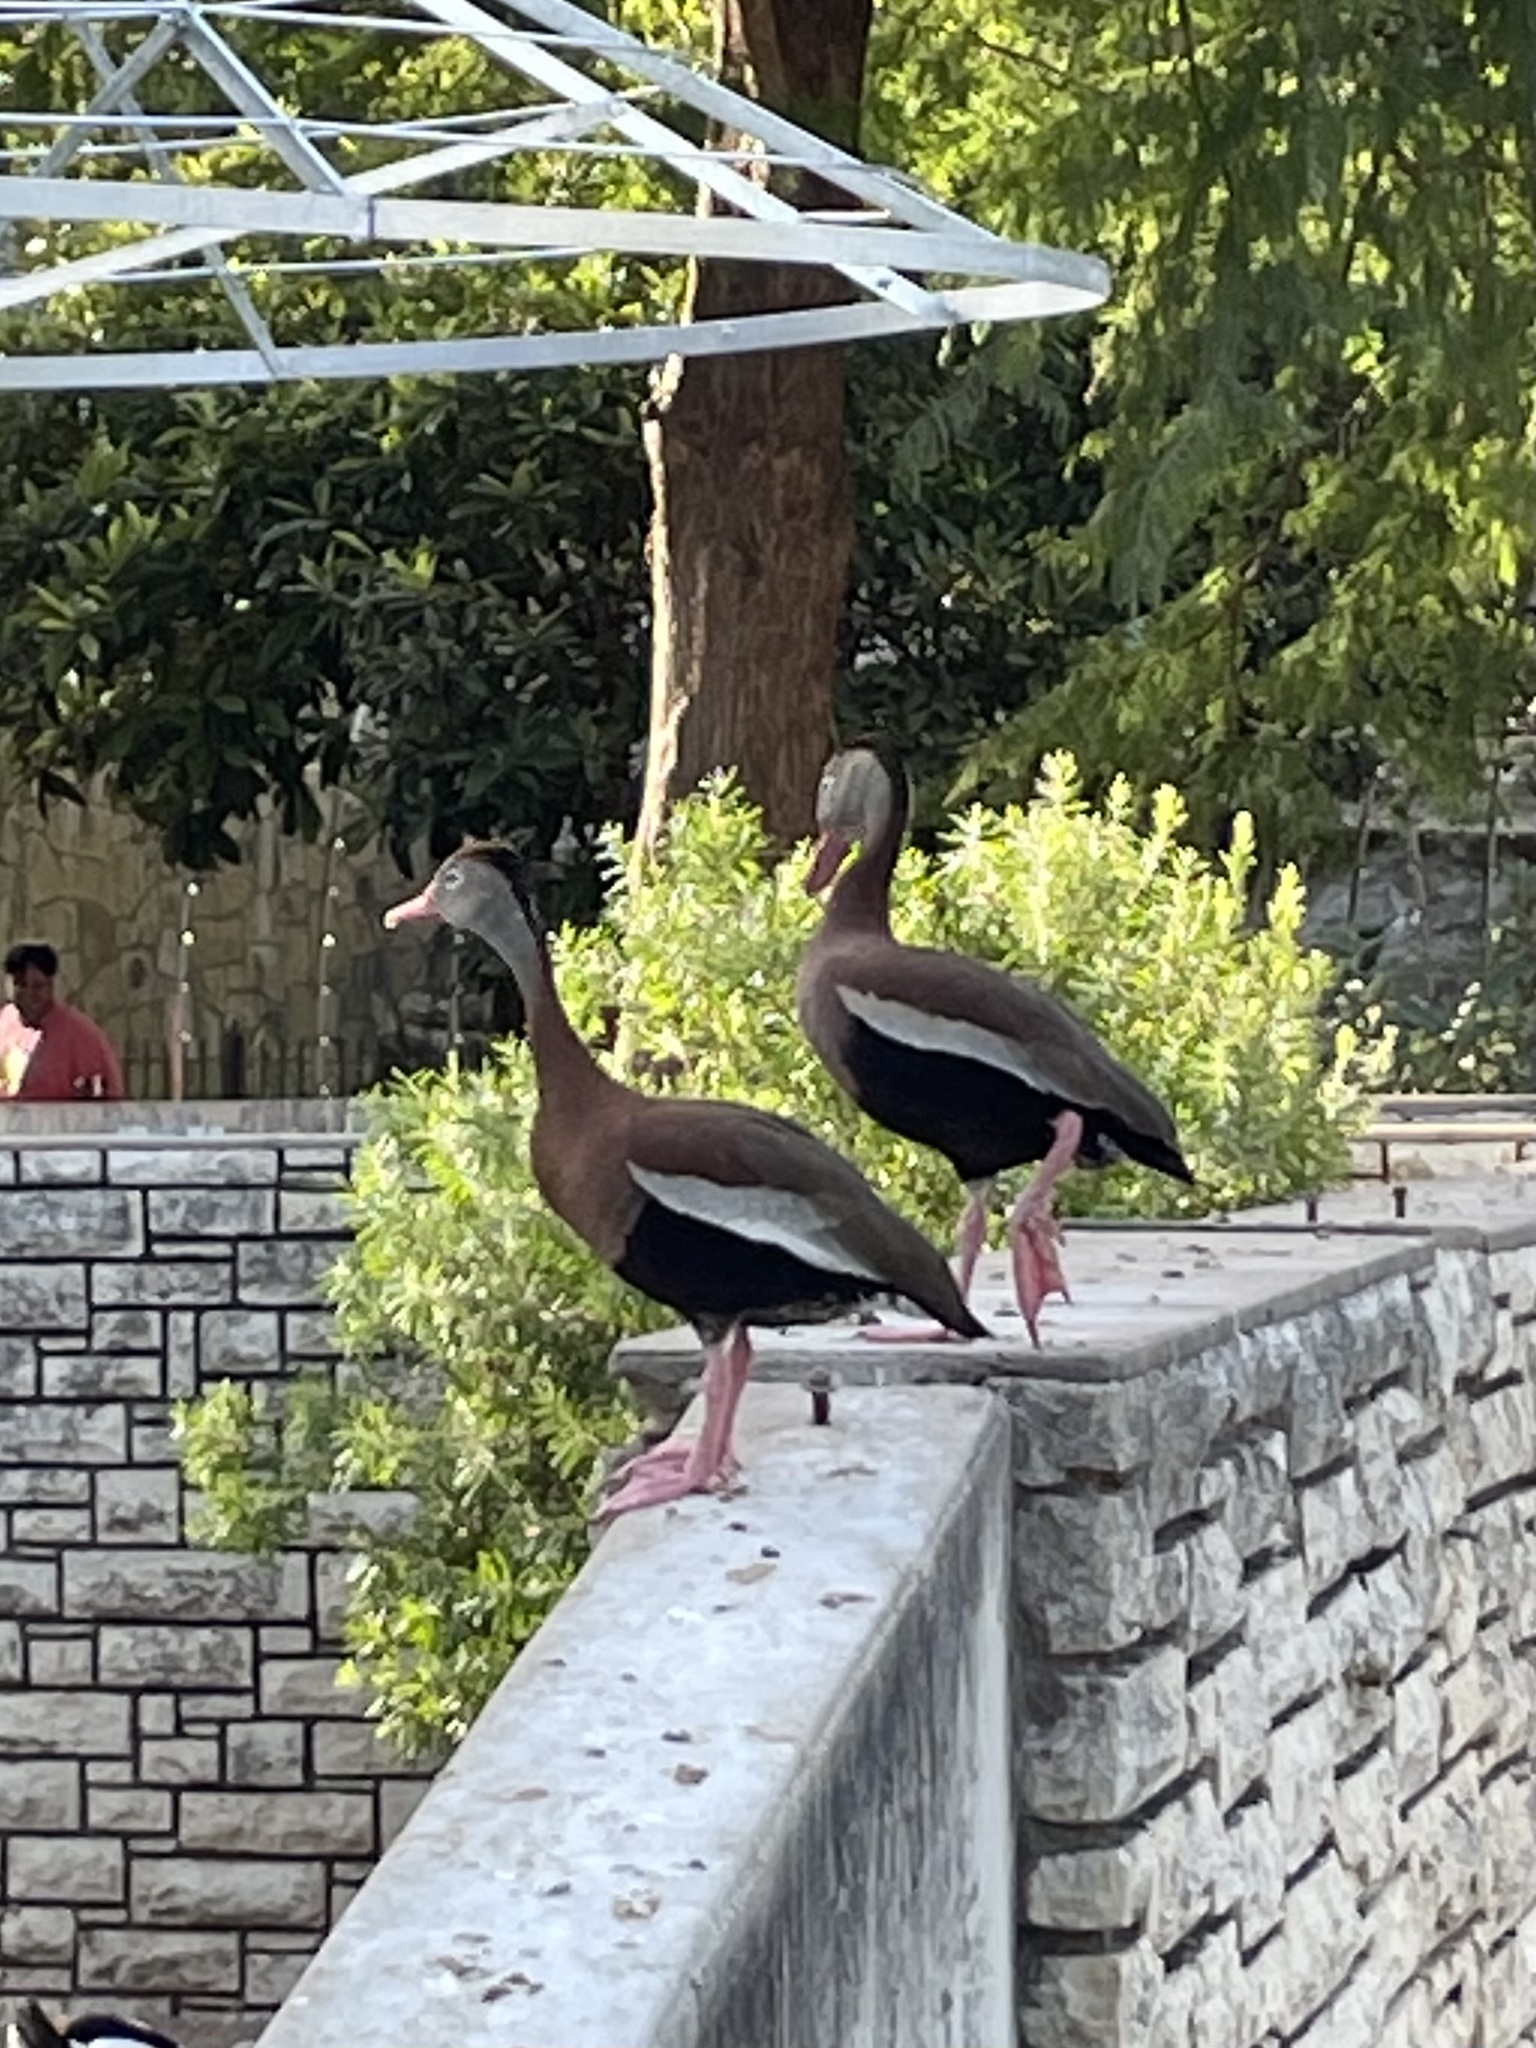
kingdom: Animalia
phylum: Chordata
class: Aves
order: Anseriformes
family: Anatidae
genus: Dendrocygna
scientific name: Dendrocygna autumnalis
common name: Black-bellied whistling duck
